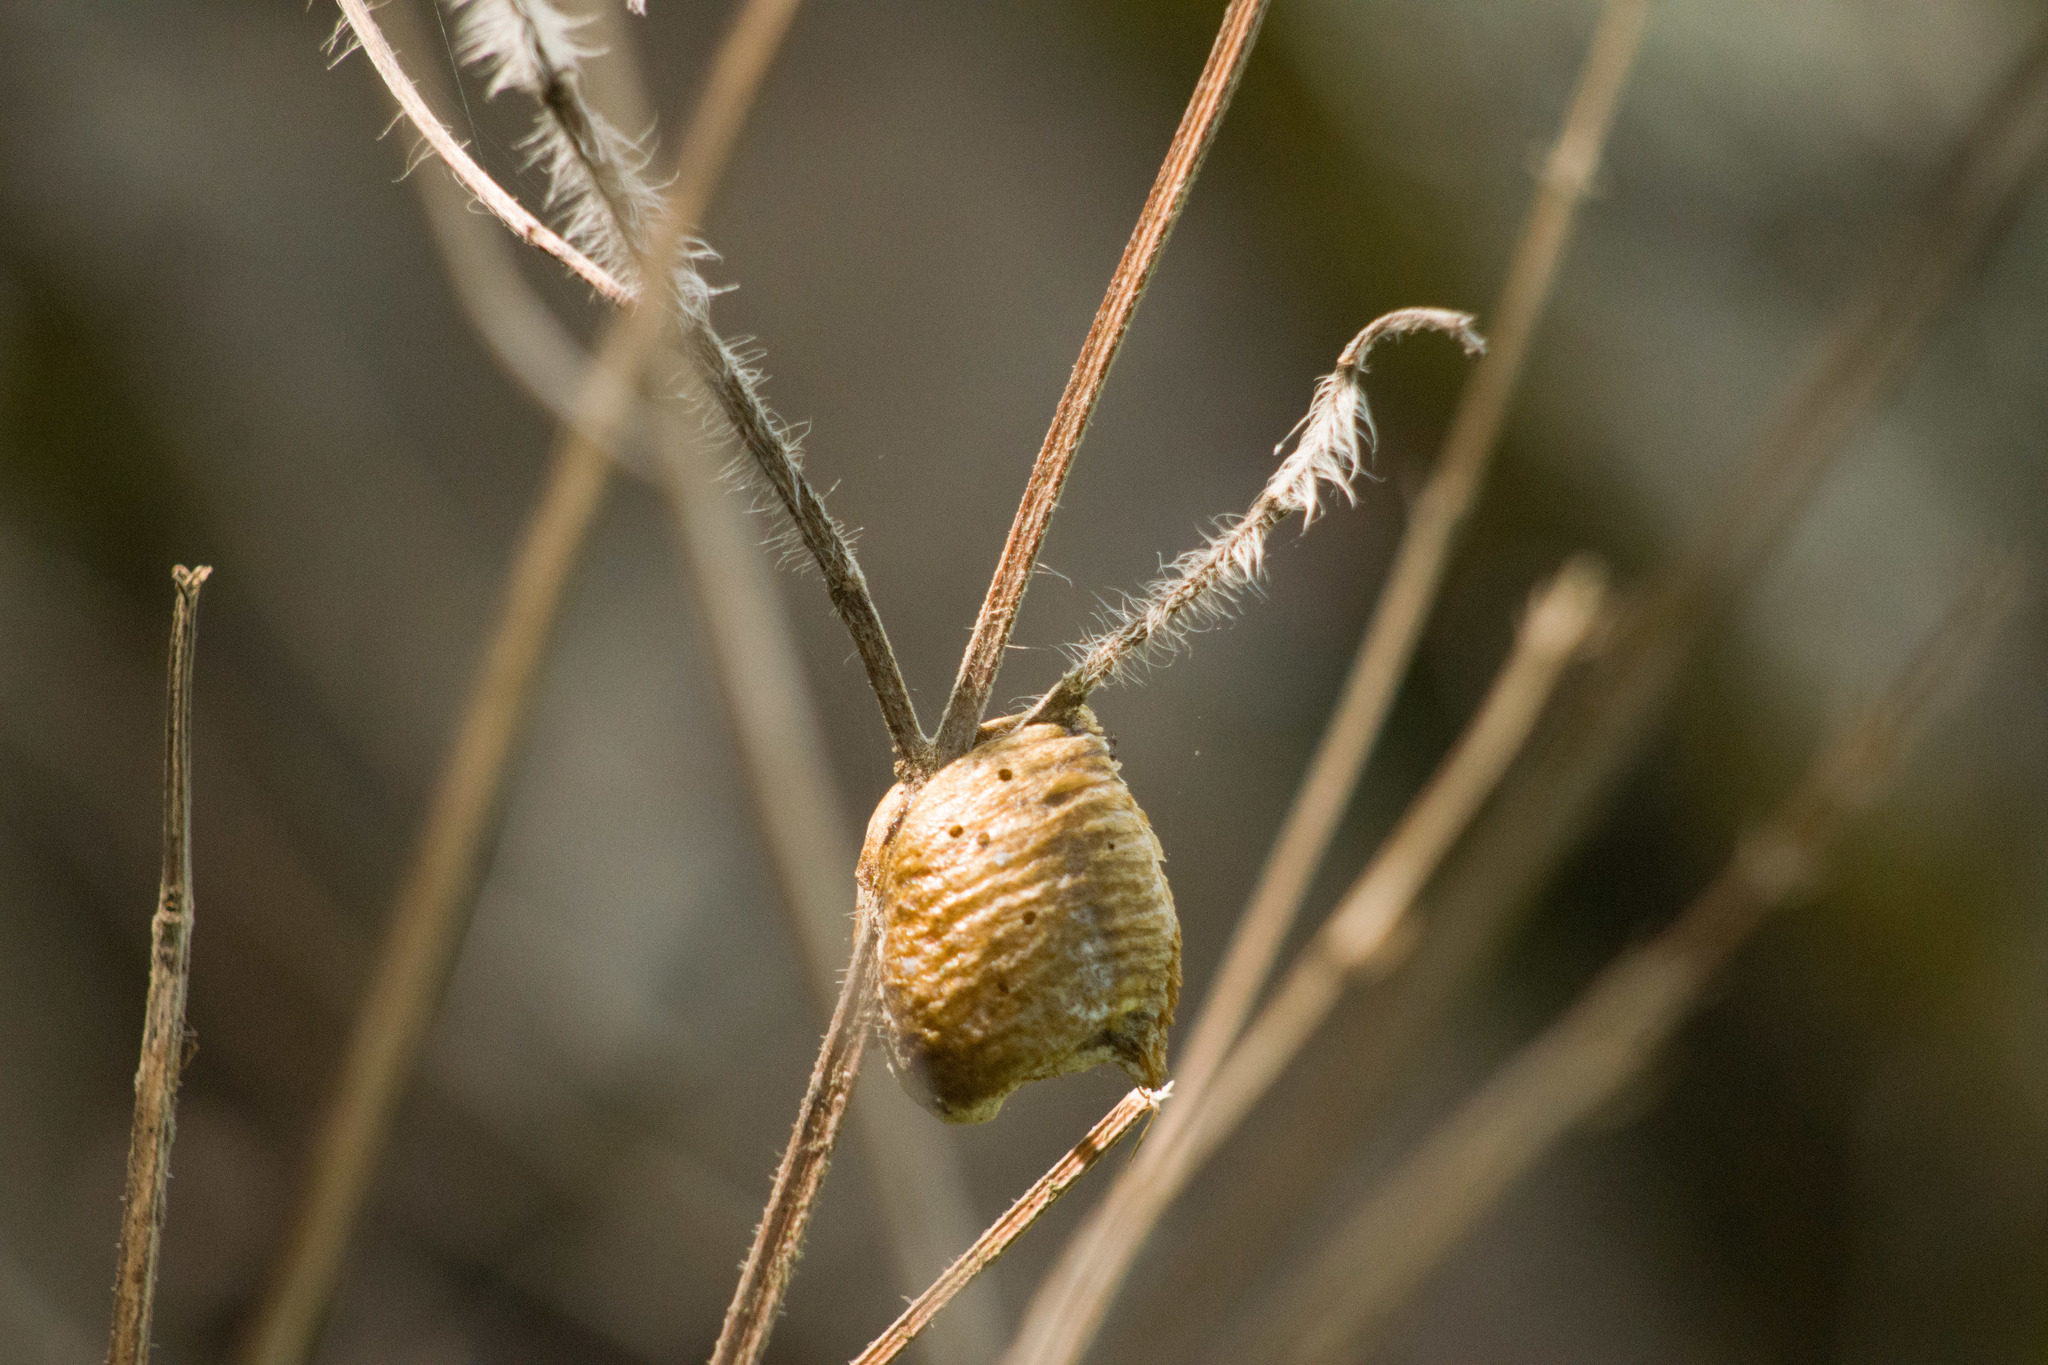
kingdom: Animalia
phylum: Arthropoda
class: Insecta
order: Mantodea
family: Mantidae
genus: Hierodula
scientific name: Hierodula patellifera
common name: Asian mantis
